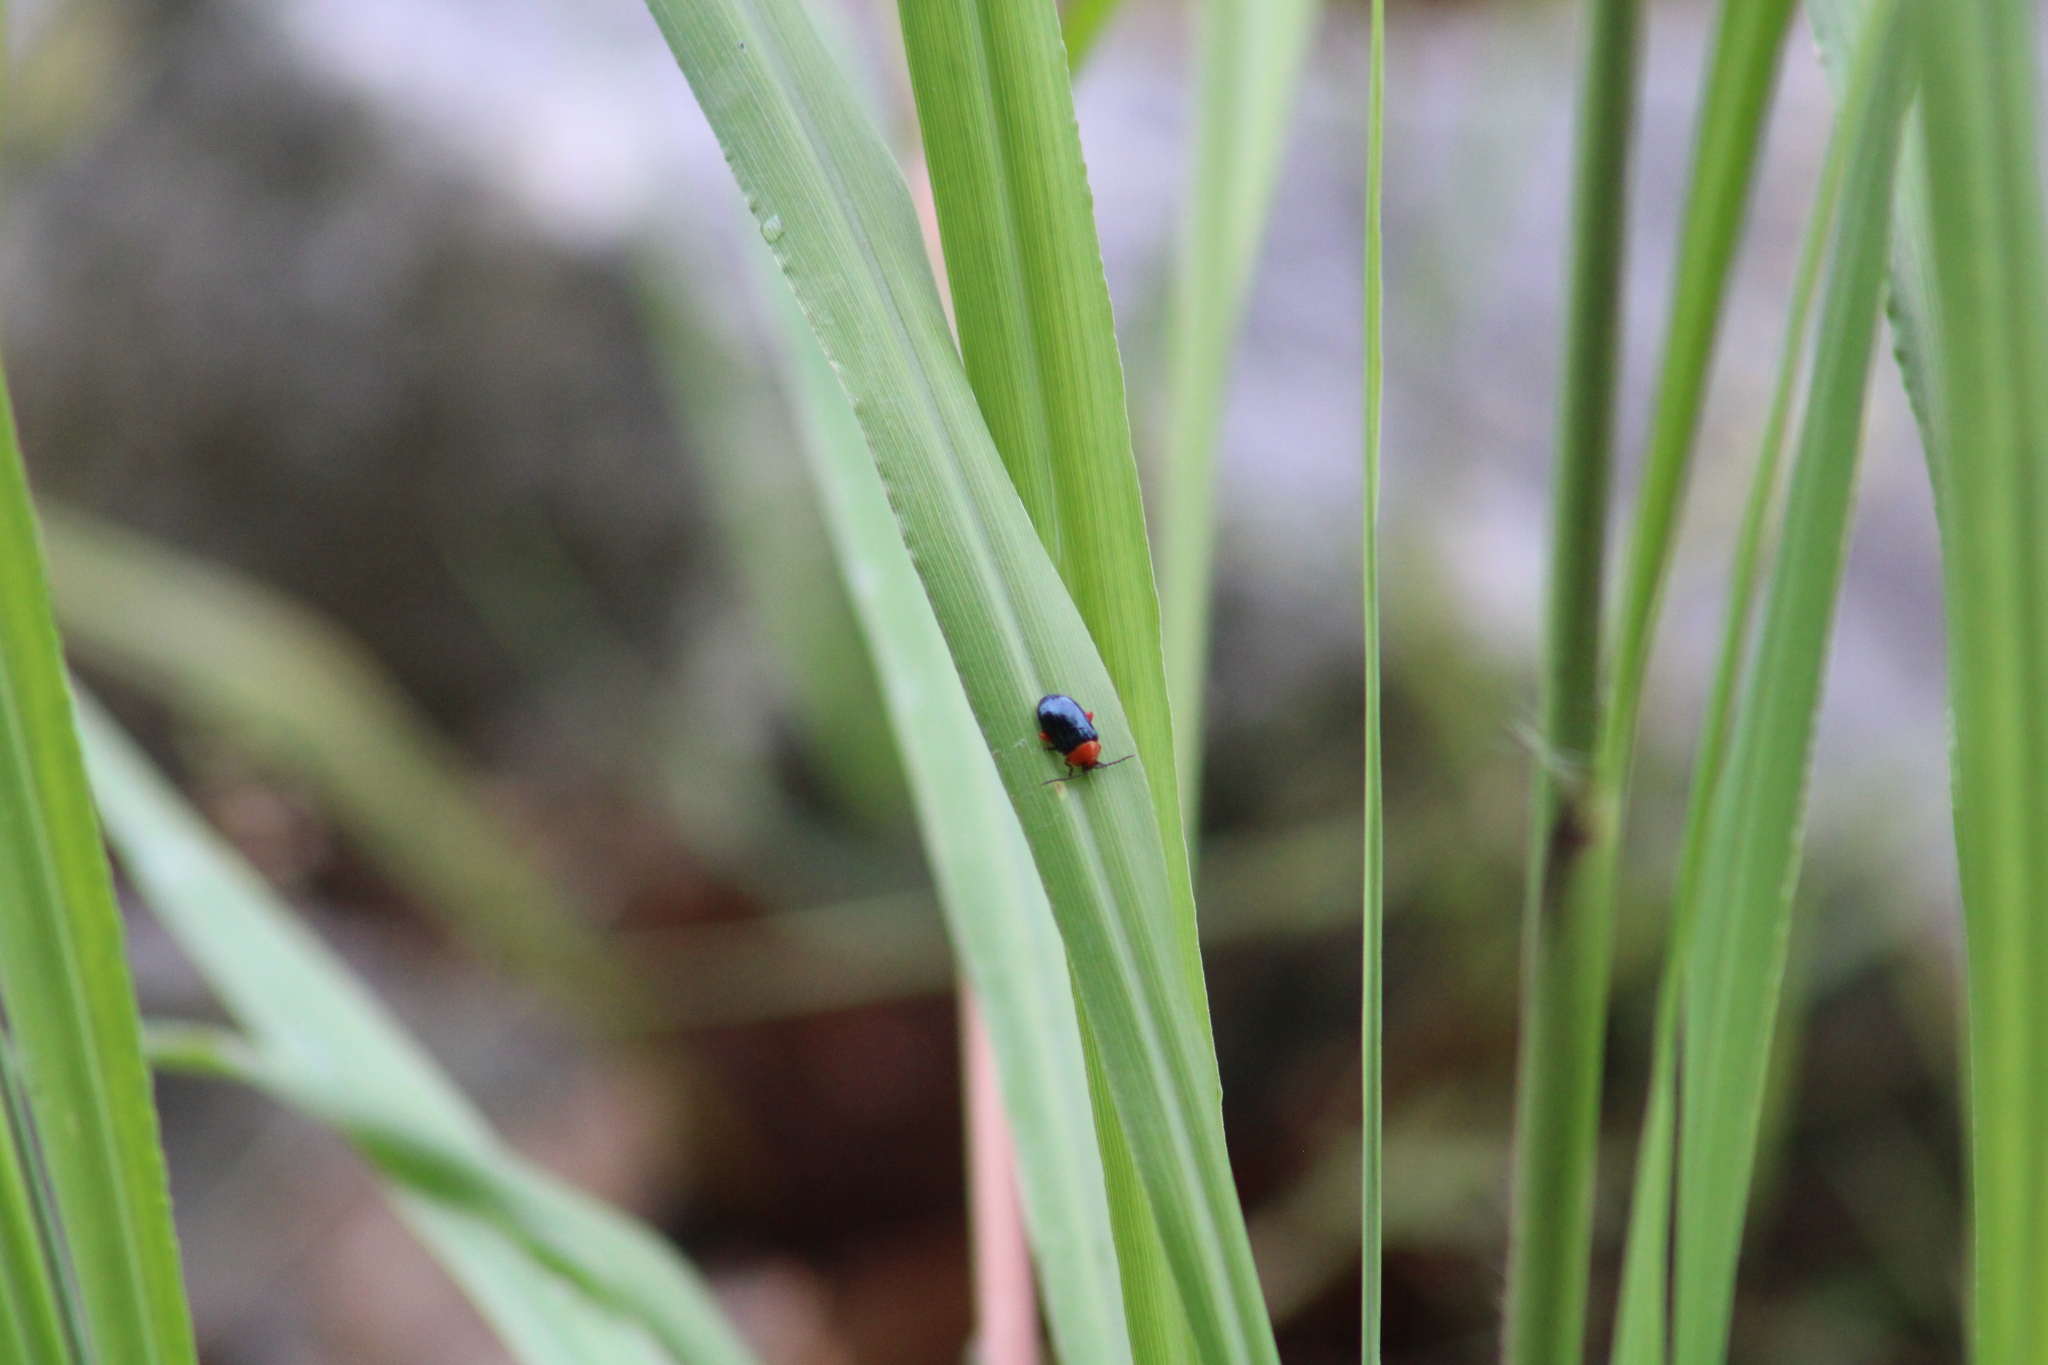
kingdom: Animalia
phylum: Arthropoda
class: Insecta
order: Coleoptera
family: Chrysomelidae
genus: Asphaera
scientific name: Asphaera lustrans
